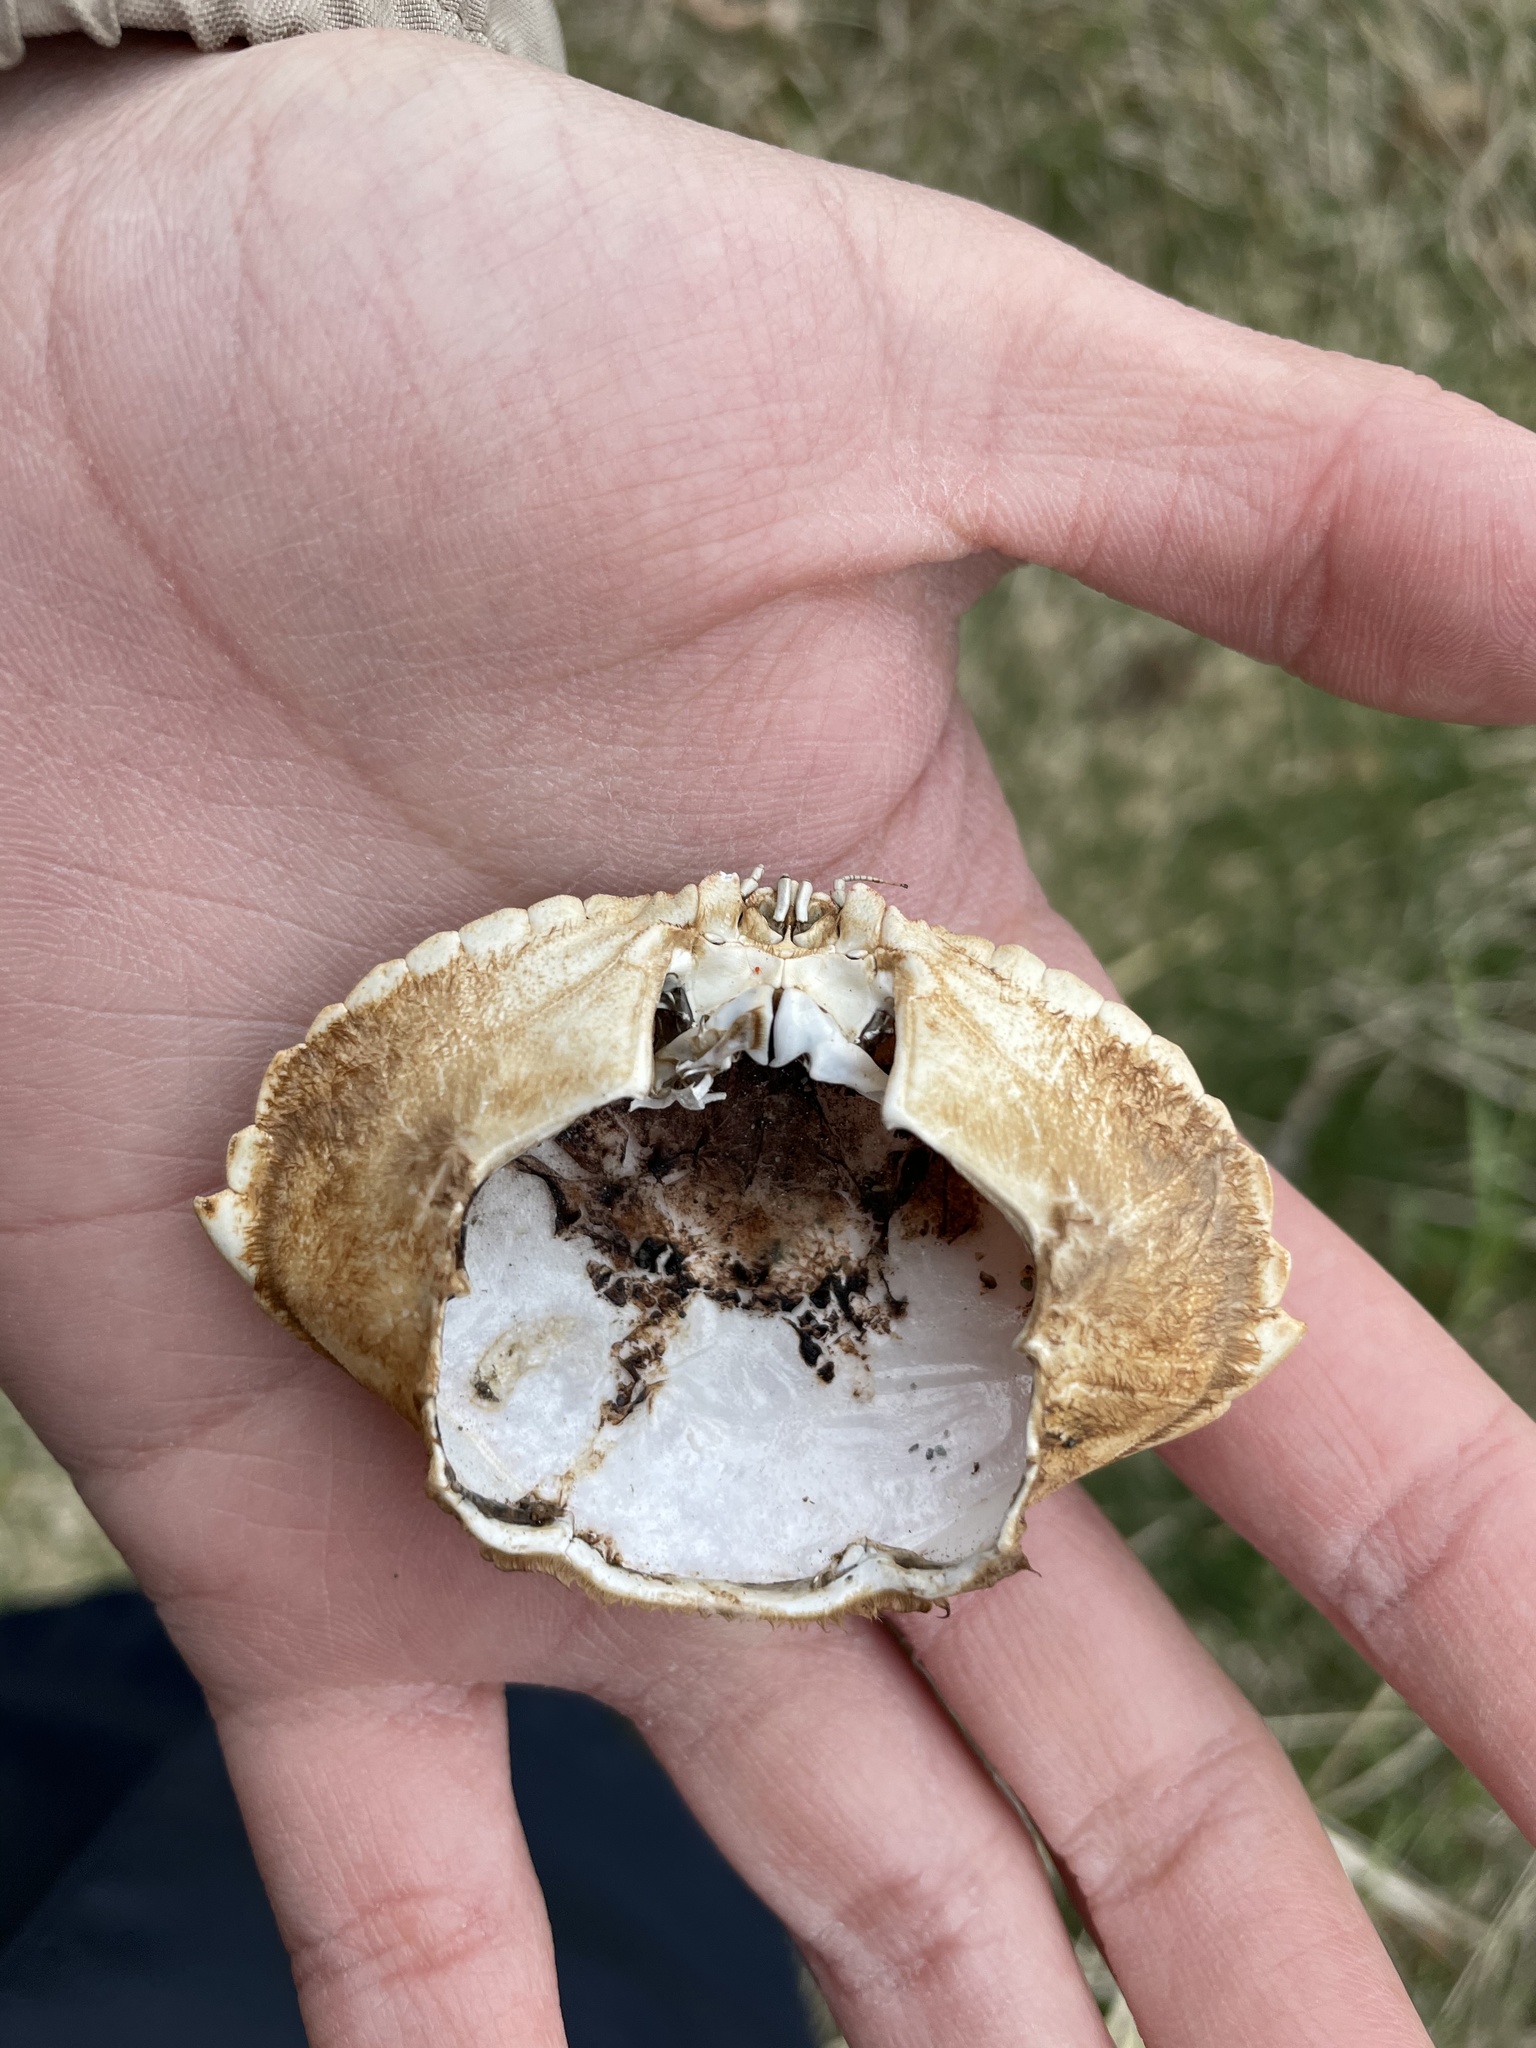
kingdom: Animalia
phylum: Arthropoda
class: Malacostraca
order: Decapoda
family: Cancridae
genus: Cancer
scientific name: Cancer irroratus
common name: Atlantic rock crab
